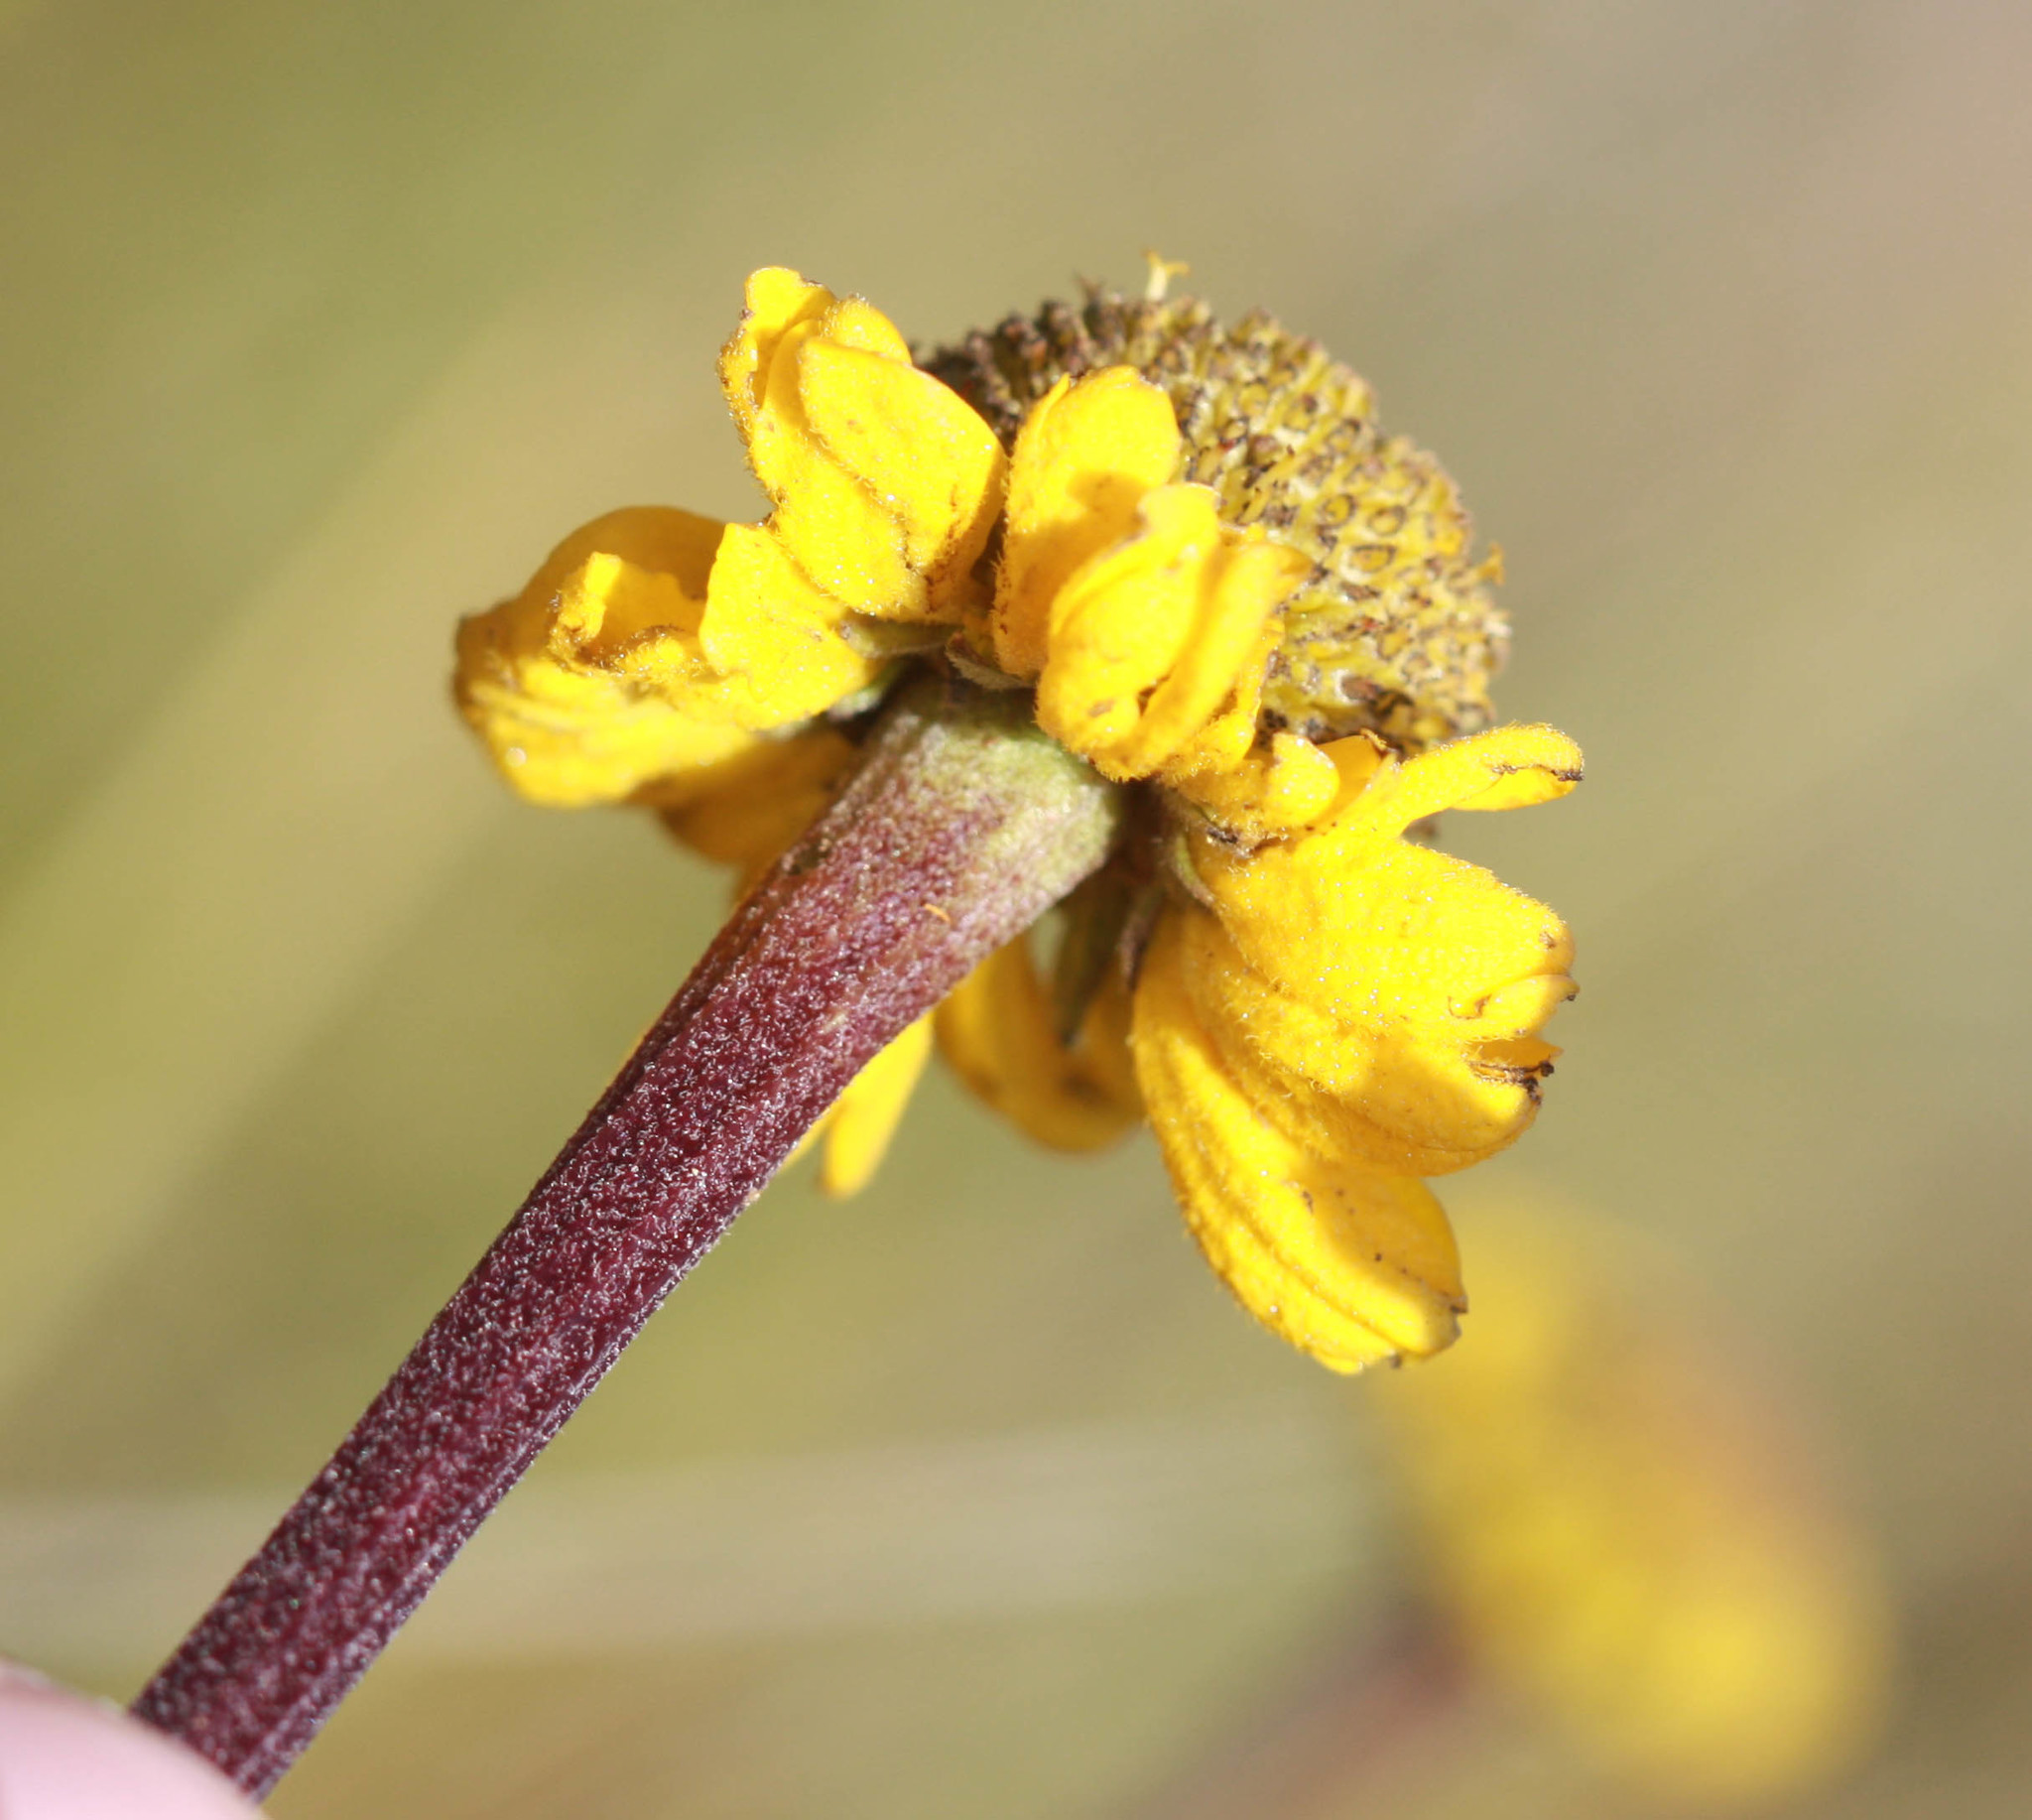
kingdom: Plantae
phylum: Tracheophyta
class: Magnoliopsida
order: Asterales
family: Asteraceae
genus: Helenium
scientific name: Helenium bigelovii
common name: Bigelow's sneezeweed
